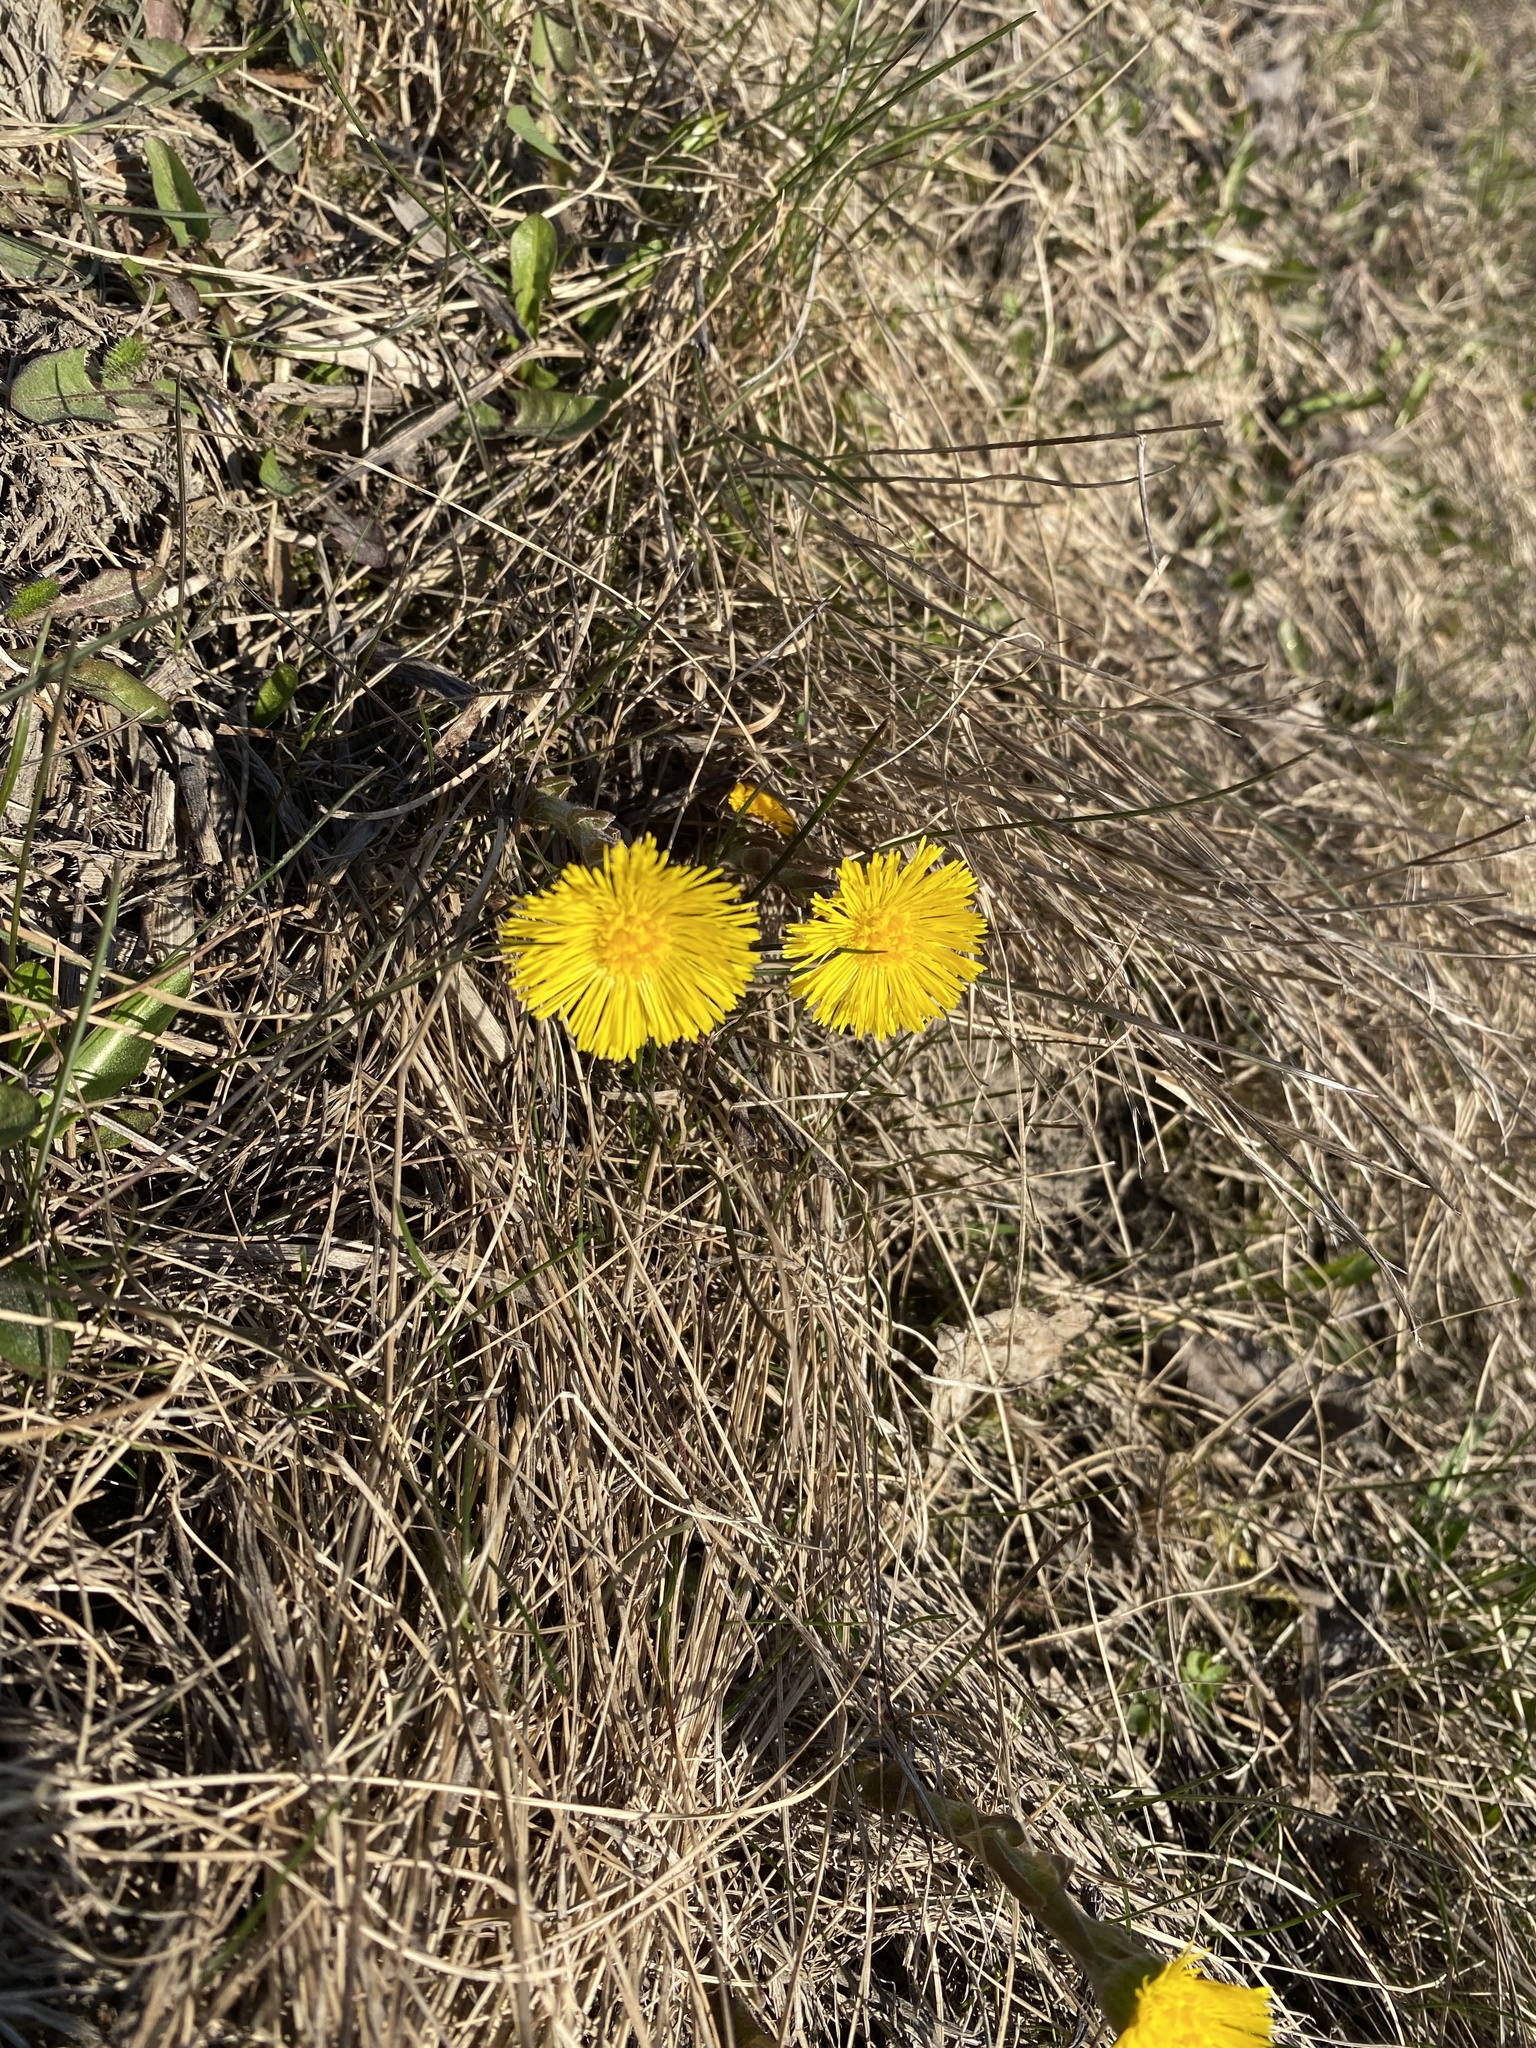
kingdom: Plantae
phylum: Tracheophyta
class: Magnoliopsida
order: Asterales
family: Asteraceae
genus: Tussilago
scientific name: Tussilago farfara
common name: Coltsfoot
